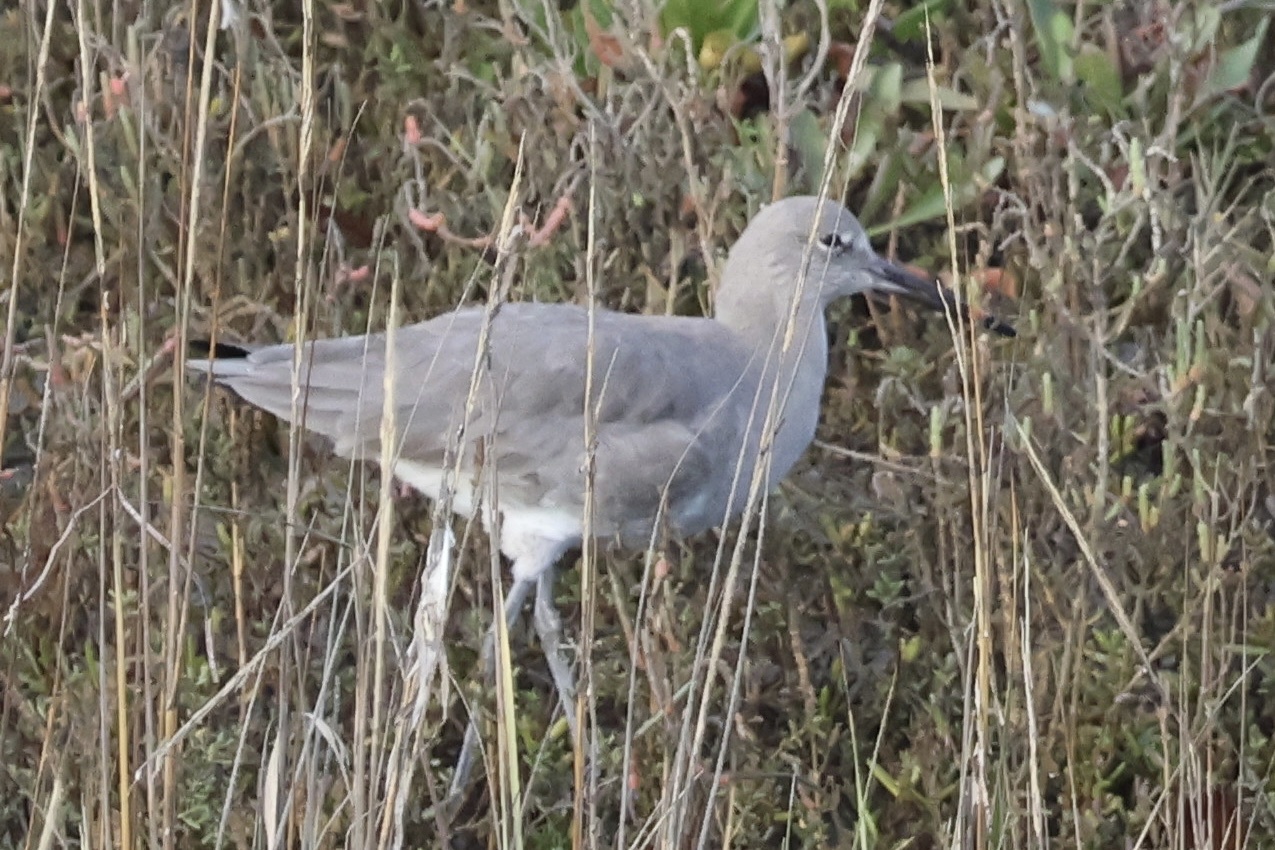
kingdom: Animalia
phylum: Chordata
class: Aves
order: Charadriiformes
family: Scolopacidae
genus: Tringa
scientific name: Tringa semipalmata
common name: Willet
